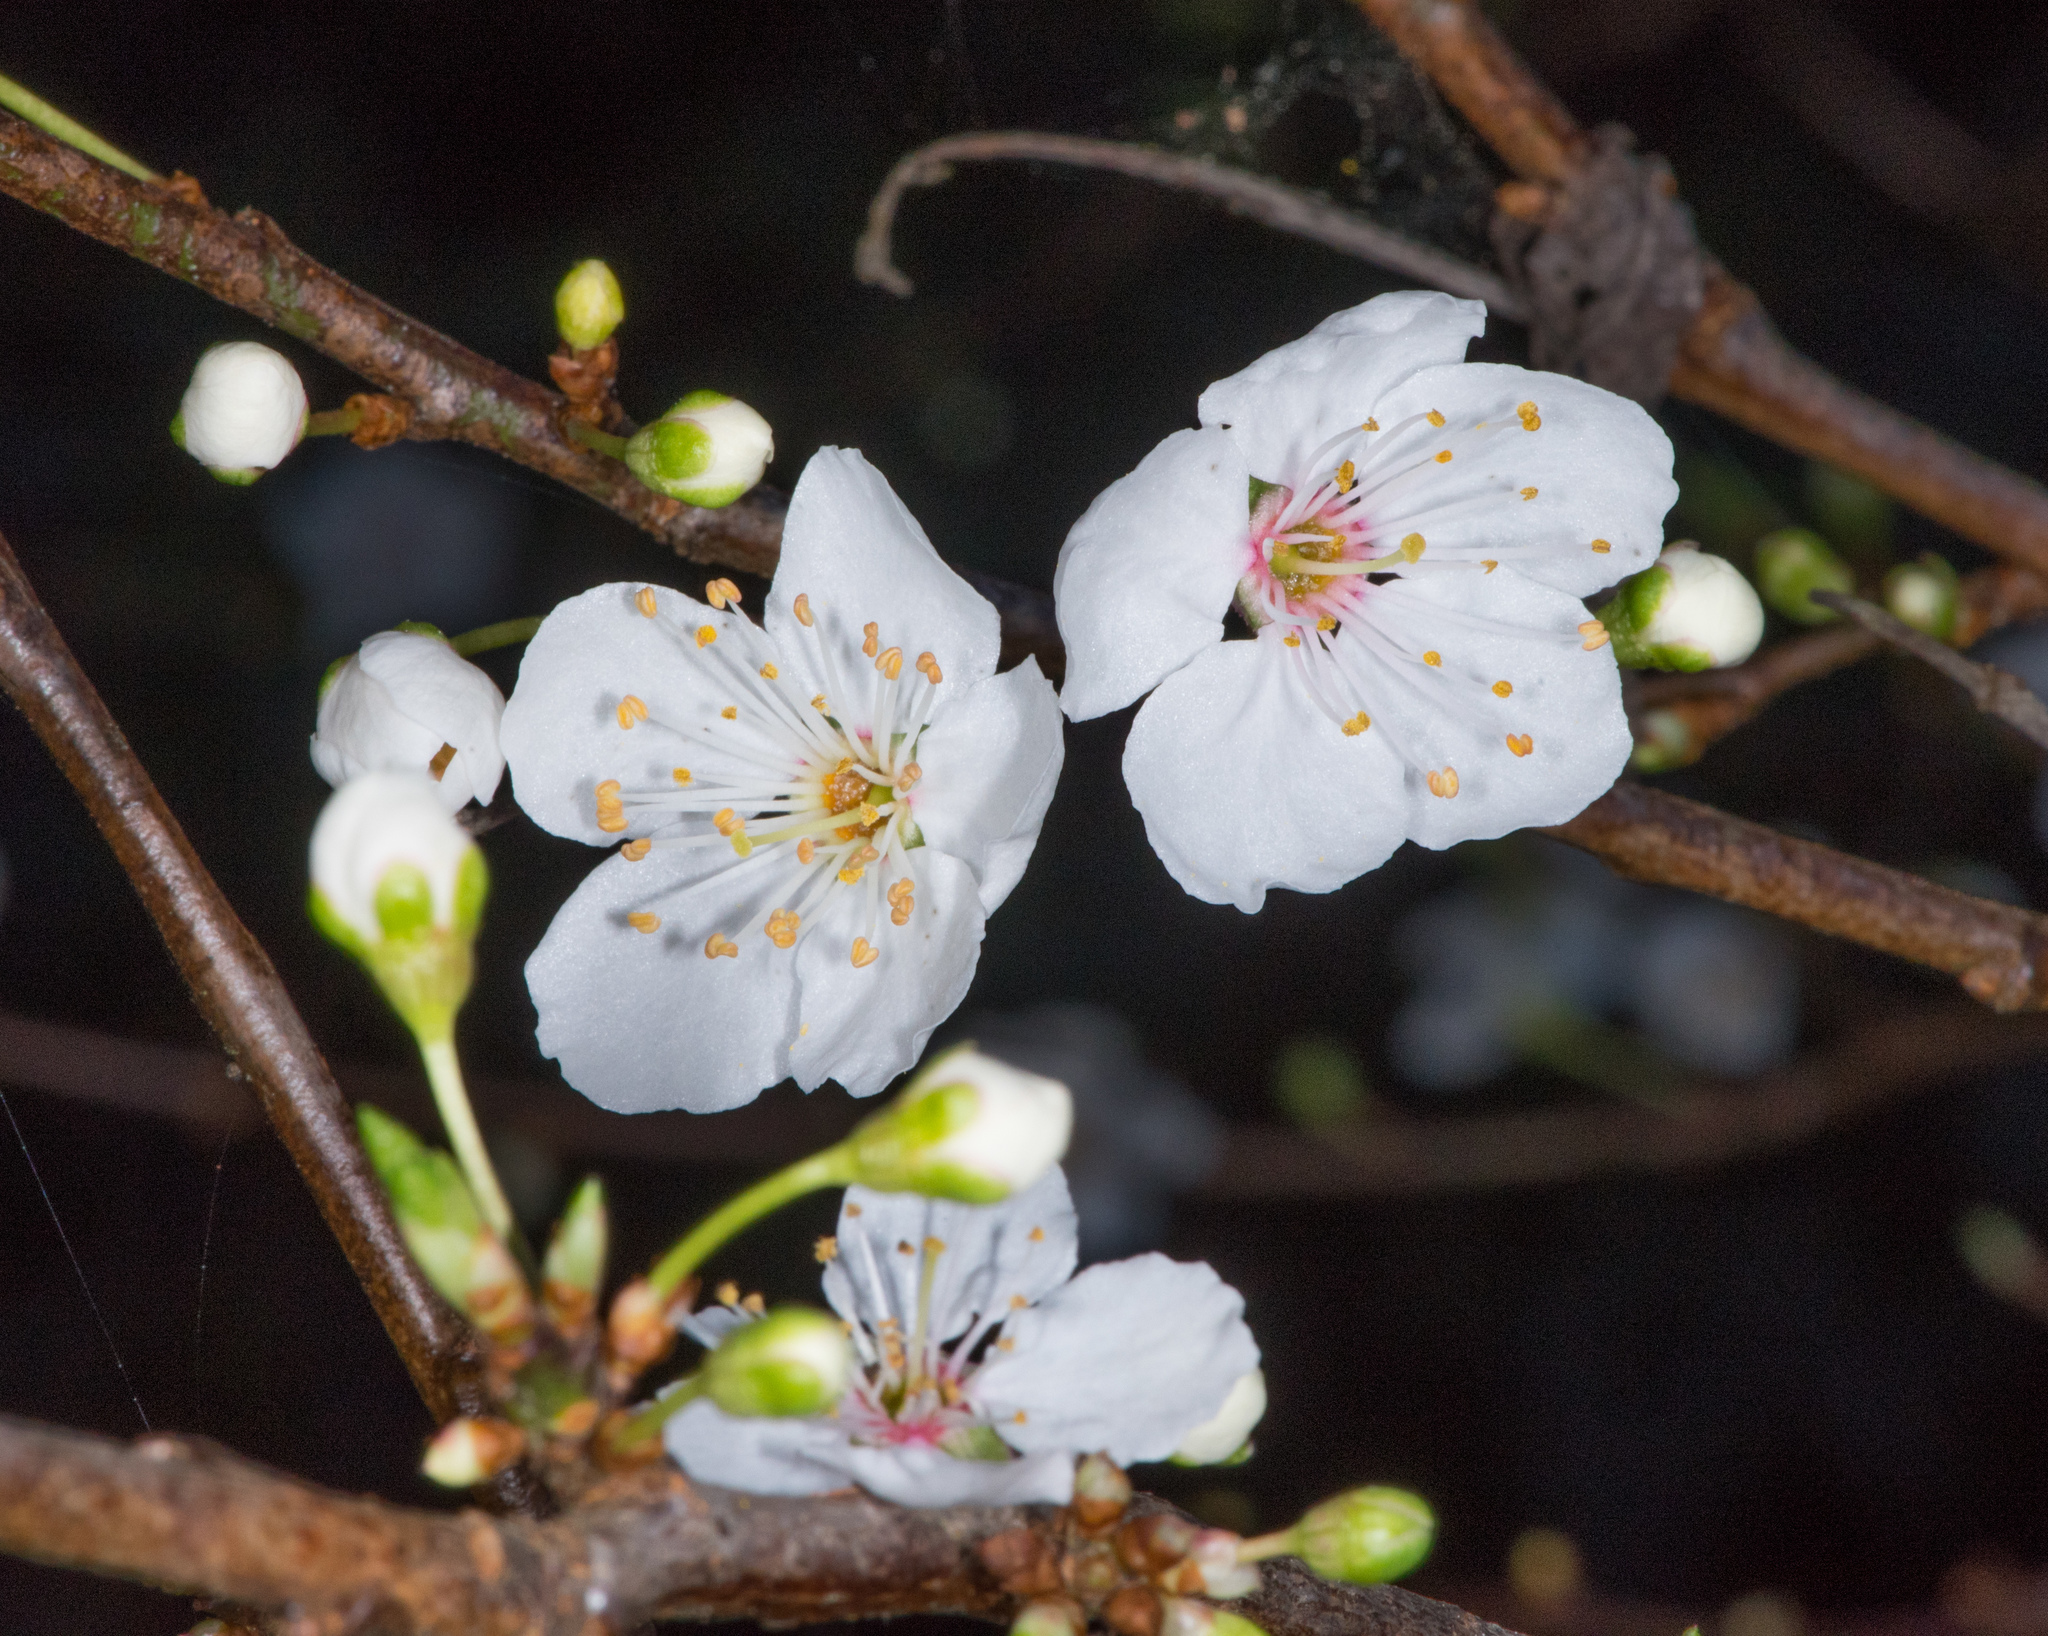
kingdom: Plantae
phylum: Tracheophyta
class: Magnoliopsida
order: Rosales
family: Rosaceae
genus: Prunus
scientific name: Prunus cerasifera
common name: Cherry plum
